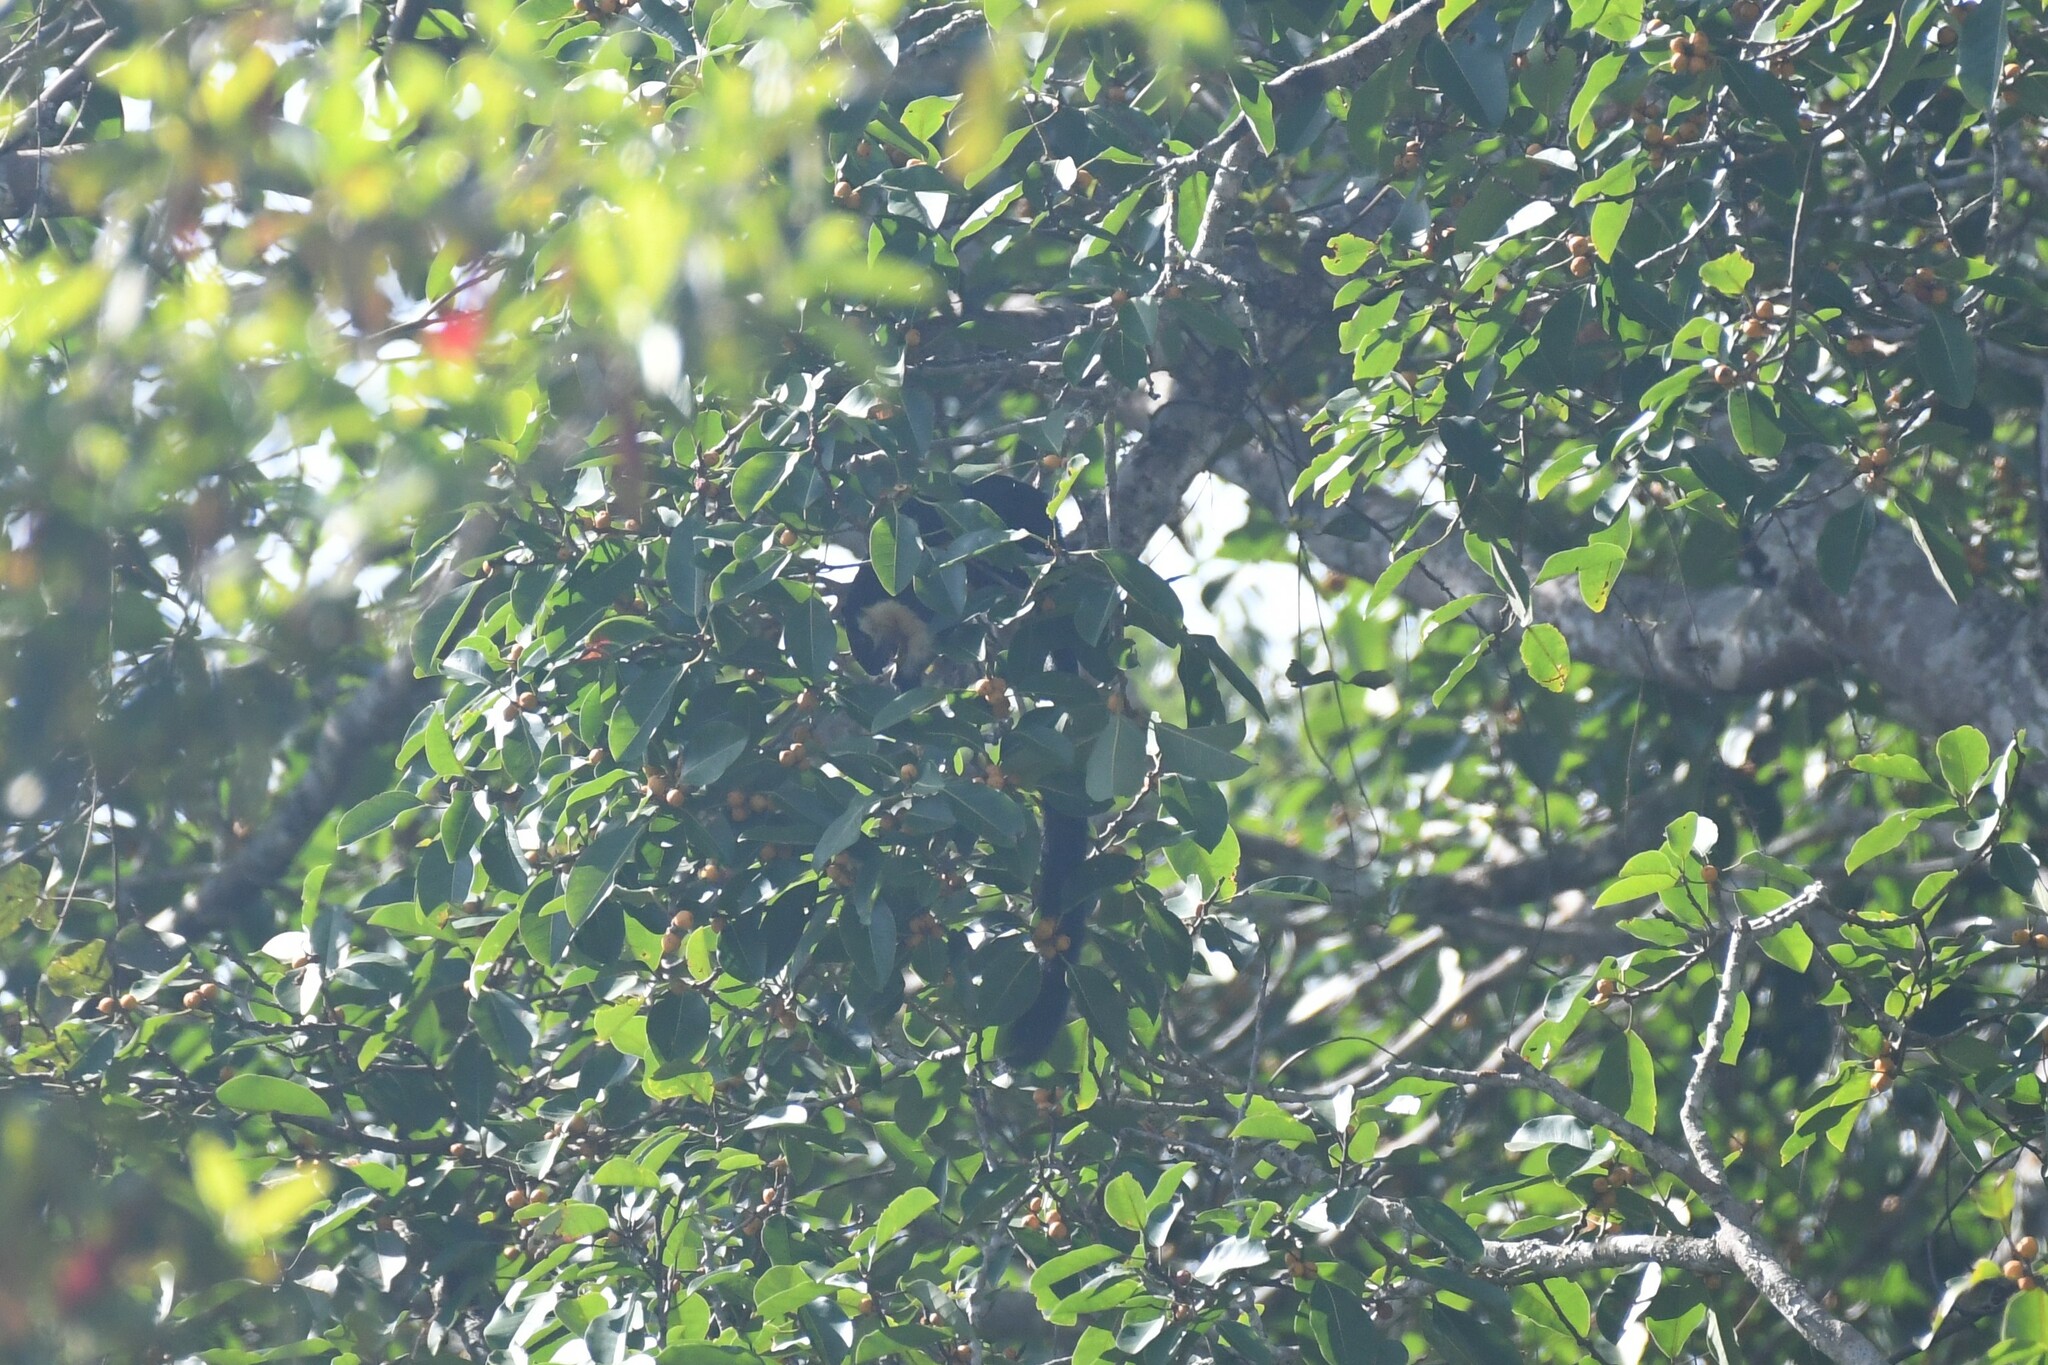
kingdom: Animalia
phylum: Chordata
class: Mammalia
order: Rodentia
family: Sciuridae
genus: Ratufa
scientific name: Ratufa bicolor
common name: Black giant squirrel
